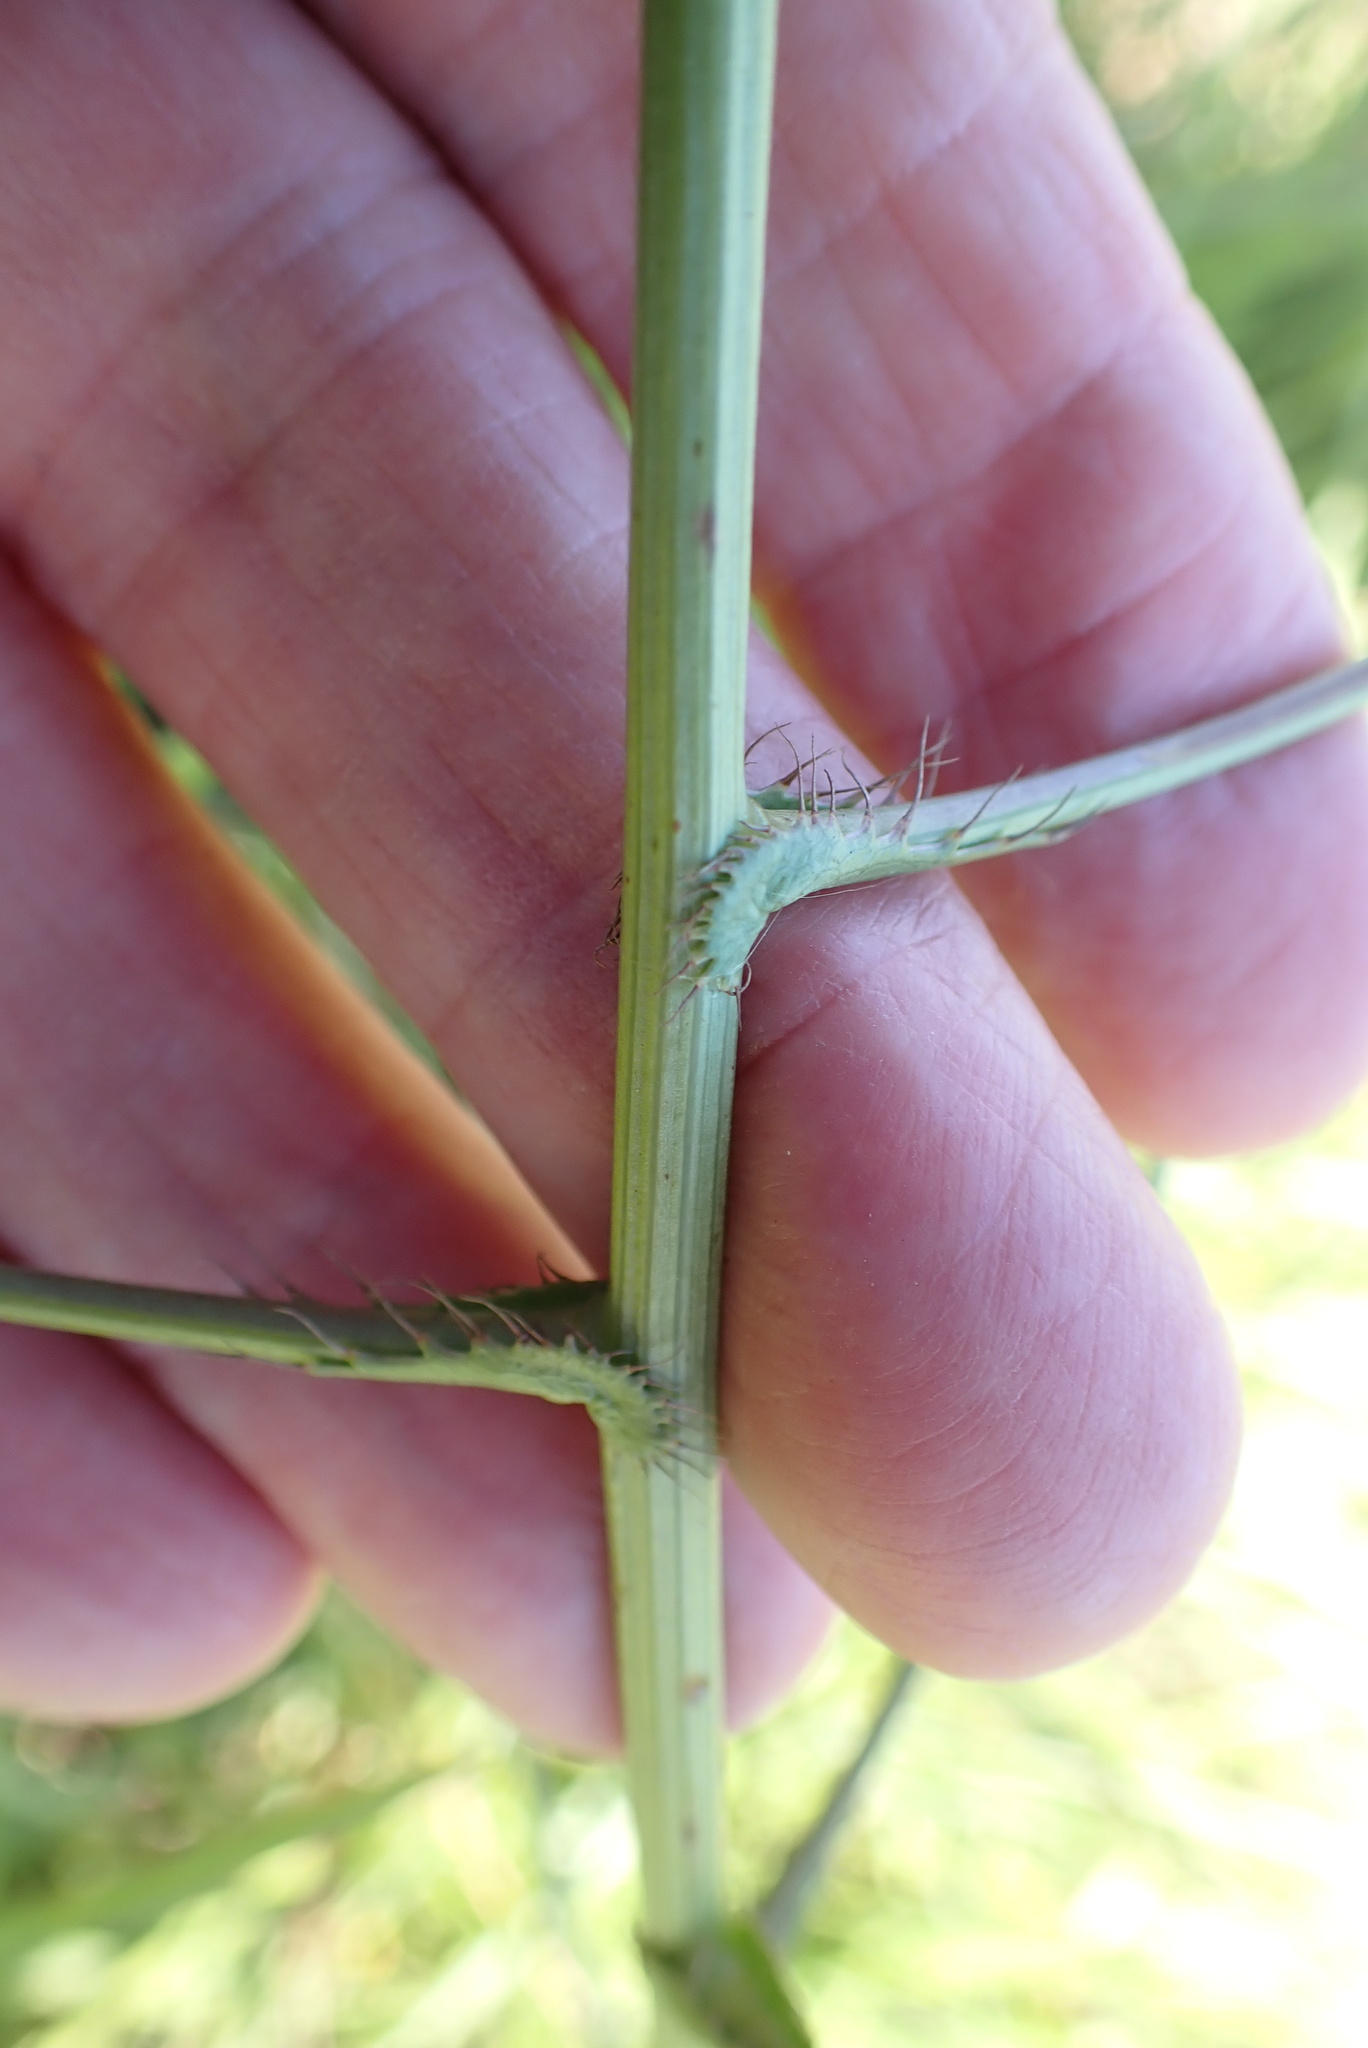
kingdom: Plantae
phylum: Tracheophyta
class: Magnoliopsida
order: Apiales
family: Apiaceae
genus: Alepidea
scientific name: Alepidea peduncularis
